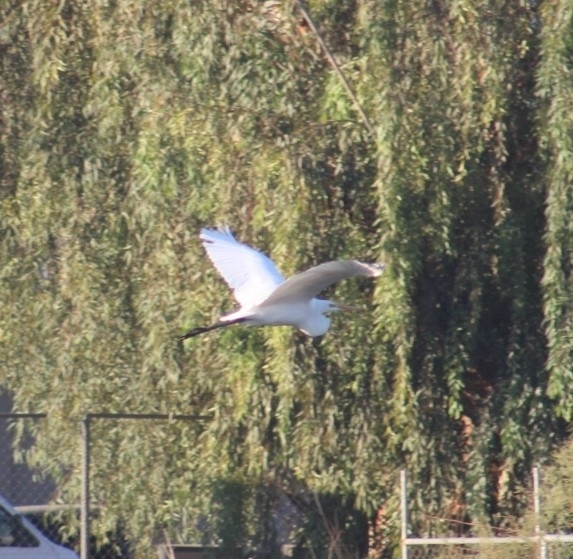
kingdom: Animalia
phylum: Chordata
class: Aves
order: Pelecaniformes
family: Ardeidae
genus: Ardea
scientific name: Ardea alba
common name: Great egret
